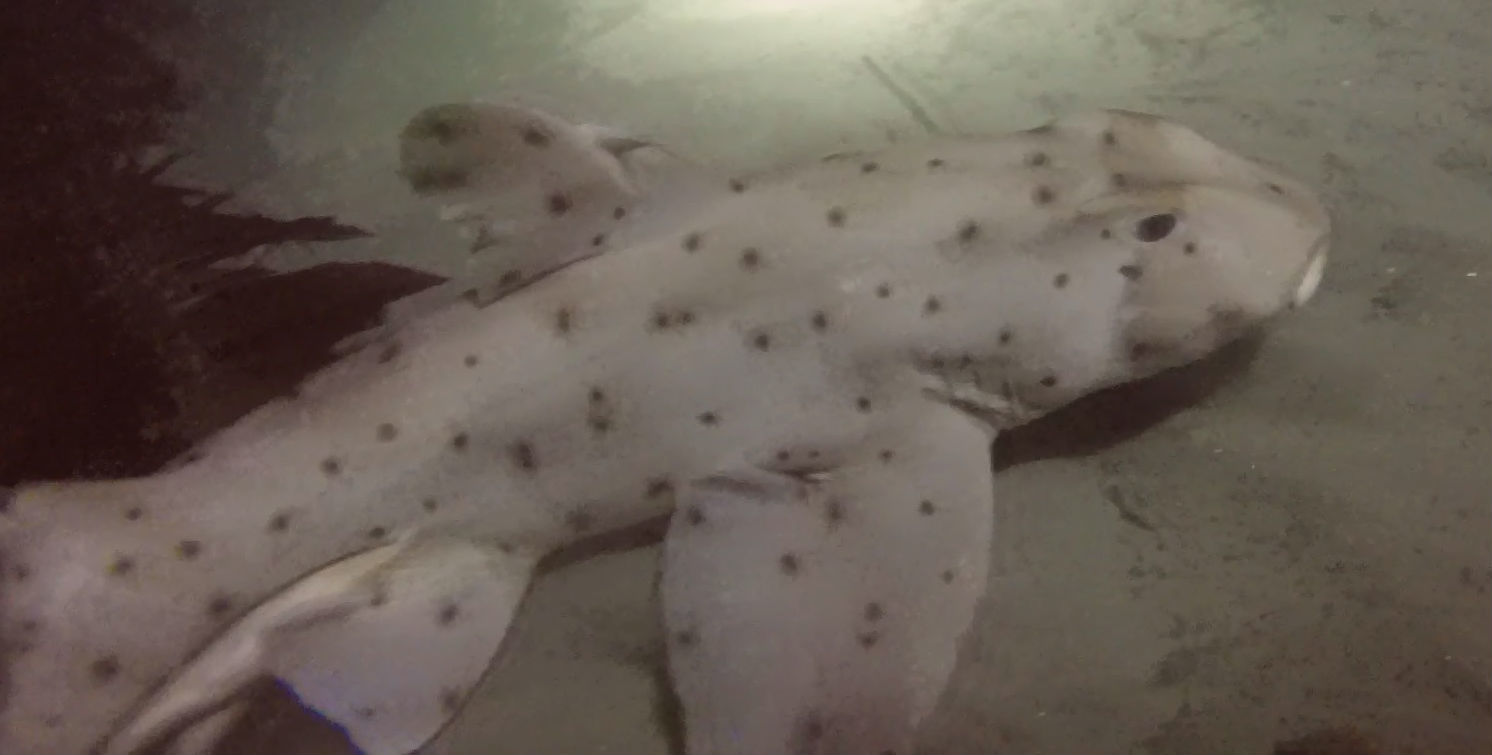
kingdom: Animalia
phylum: Chordata
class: Elasmobranchii
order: Heterodontiformes
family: Heterodontidae
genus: Heterodontus
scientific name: Heterodontus francisci
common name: Horn shark
